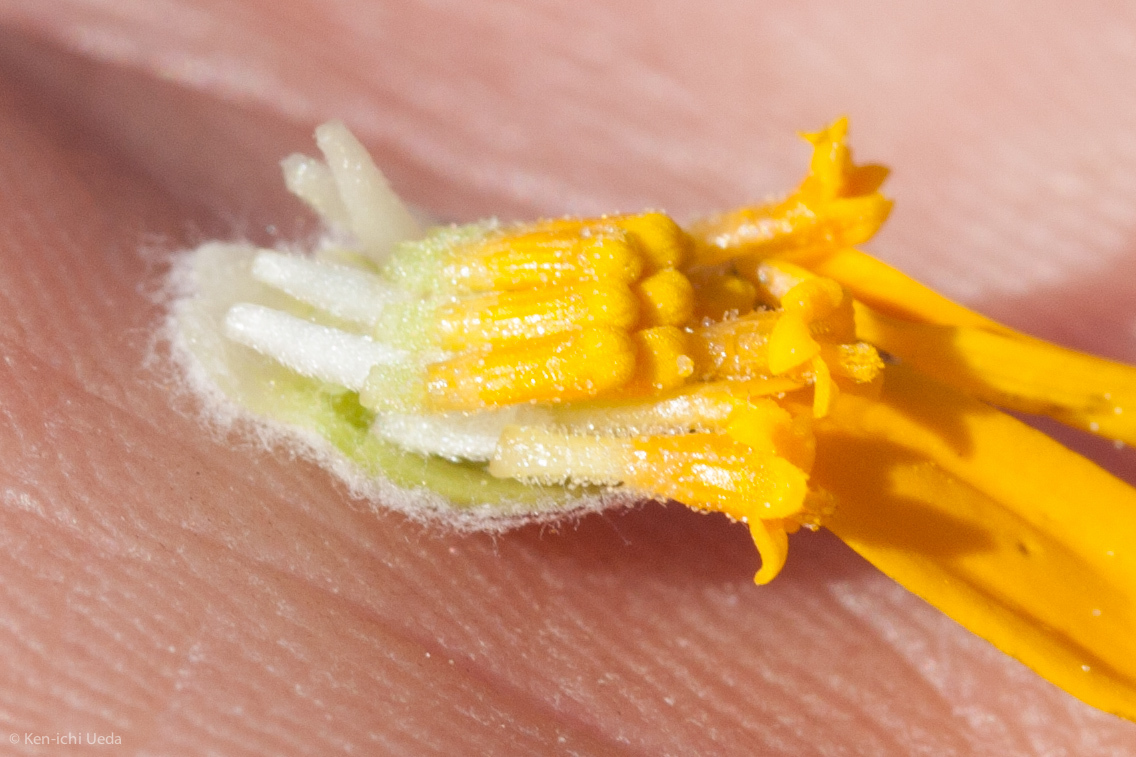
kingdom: Plantae
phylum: Tracheophyta
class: Magnoliopsida
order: Asterales
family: Asteraceae
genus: Eriophyllum
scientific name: Eriophyllum lanatum
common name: Common woolly-sunflower
